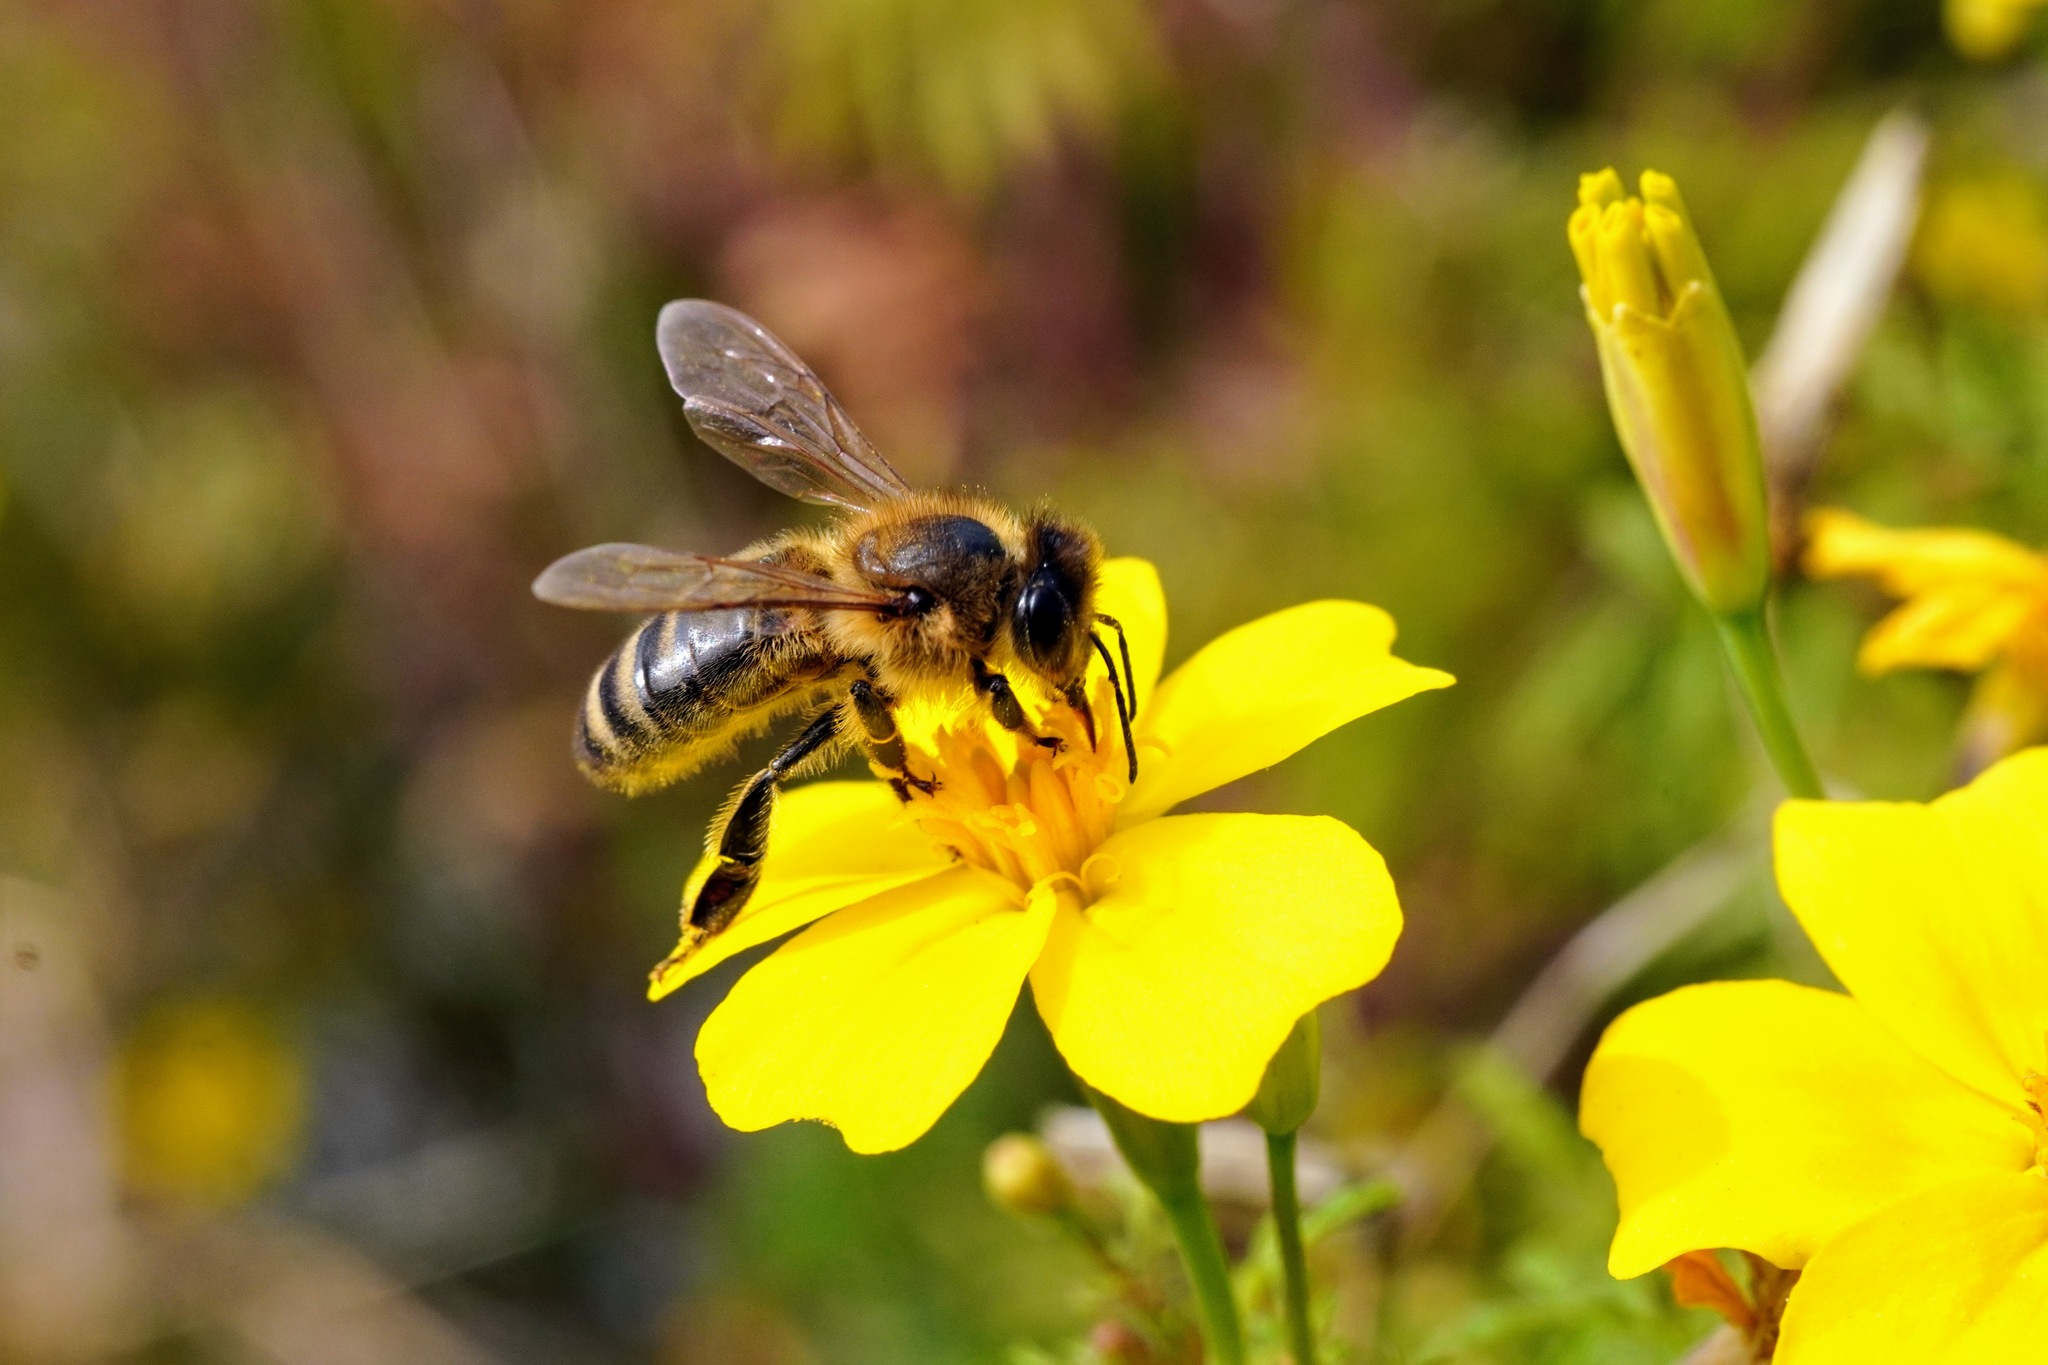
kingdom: Animalia
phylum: Arthropoda
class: Insecta
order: Hymenoptera
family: Apidae
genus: Apis
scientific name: Apis mellifera
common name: Honey bee
